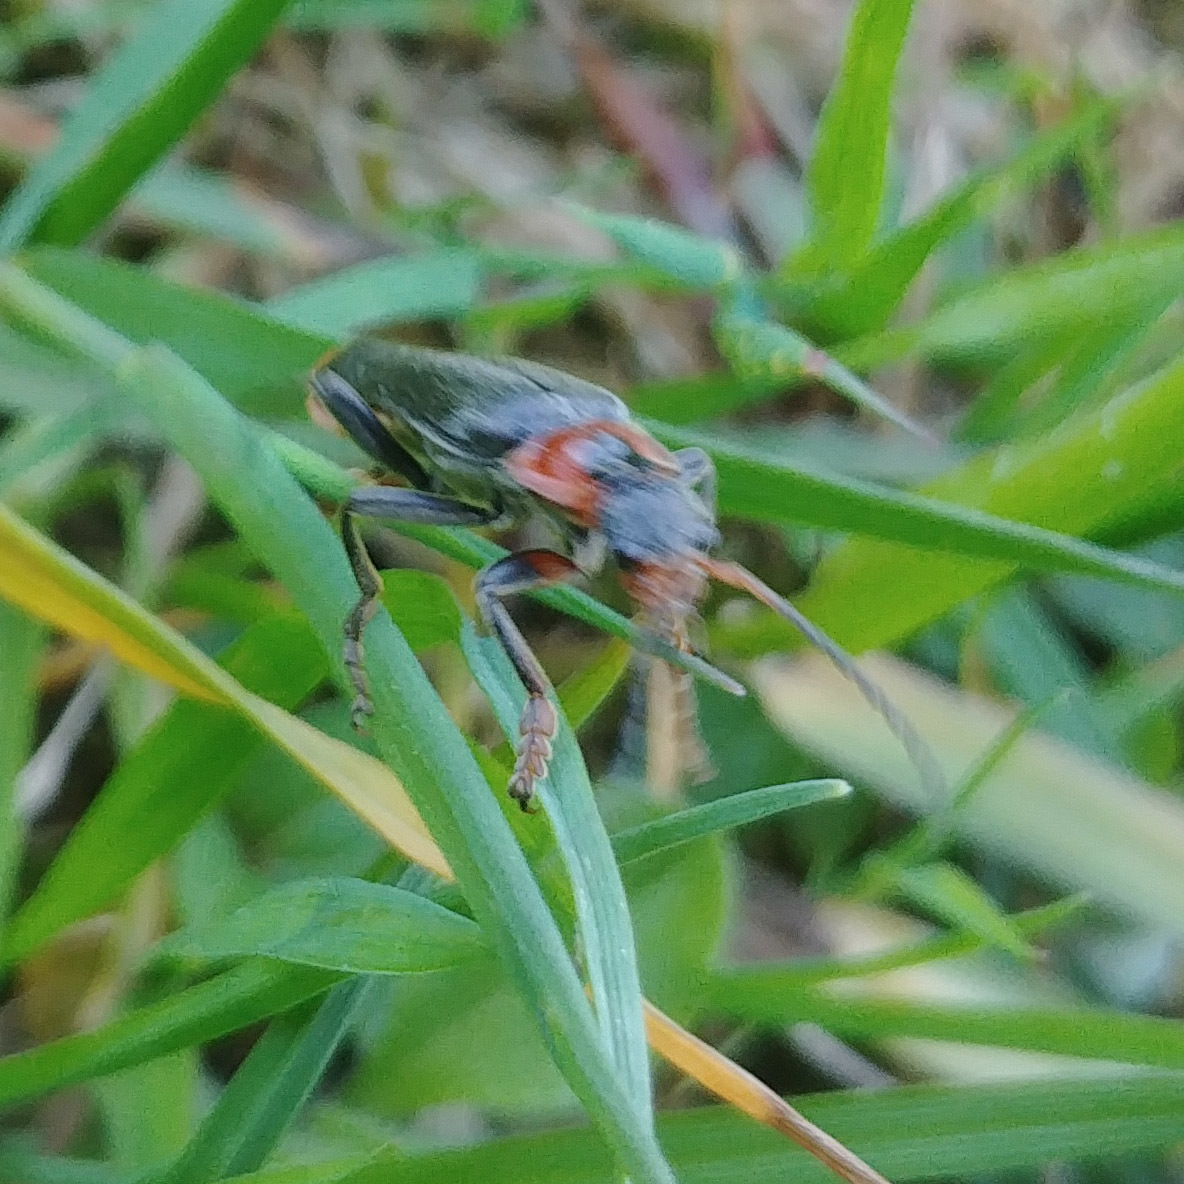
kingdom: Animalia
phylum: Arthropoda
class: Insecta
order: Coleoptera
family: Cantharidae
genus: Cantharis
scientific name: Cantharis fusca
